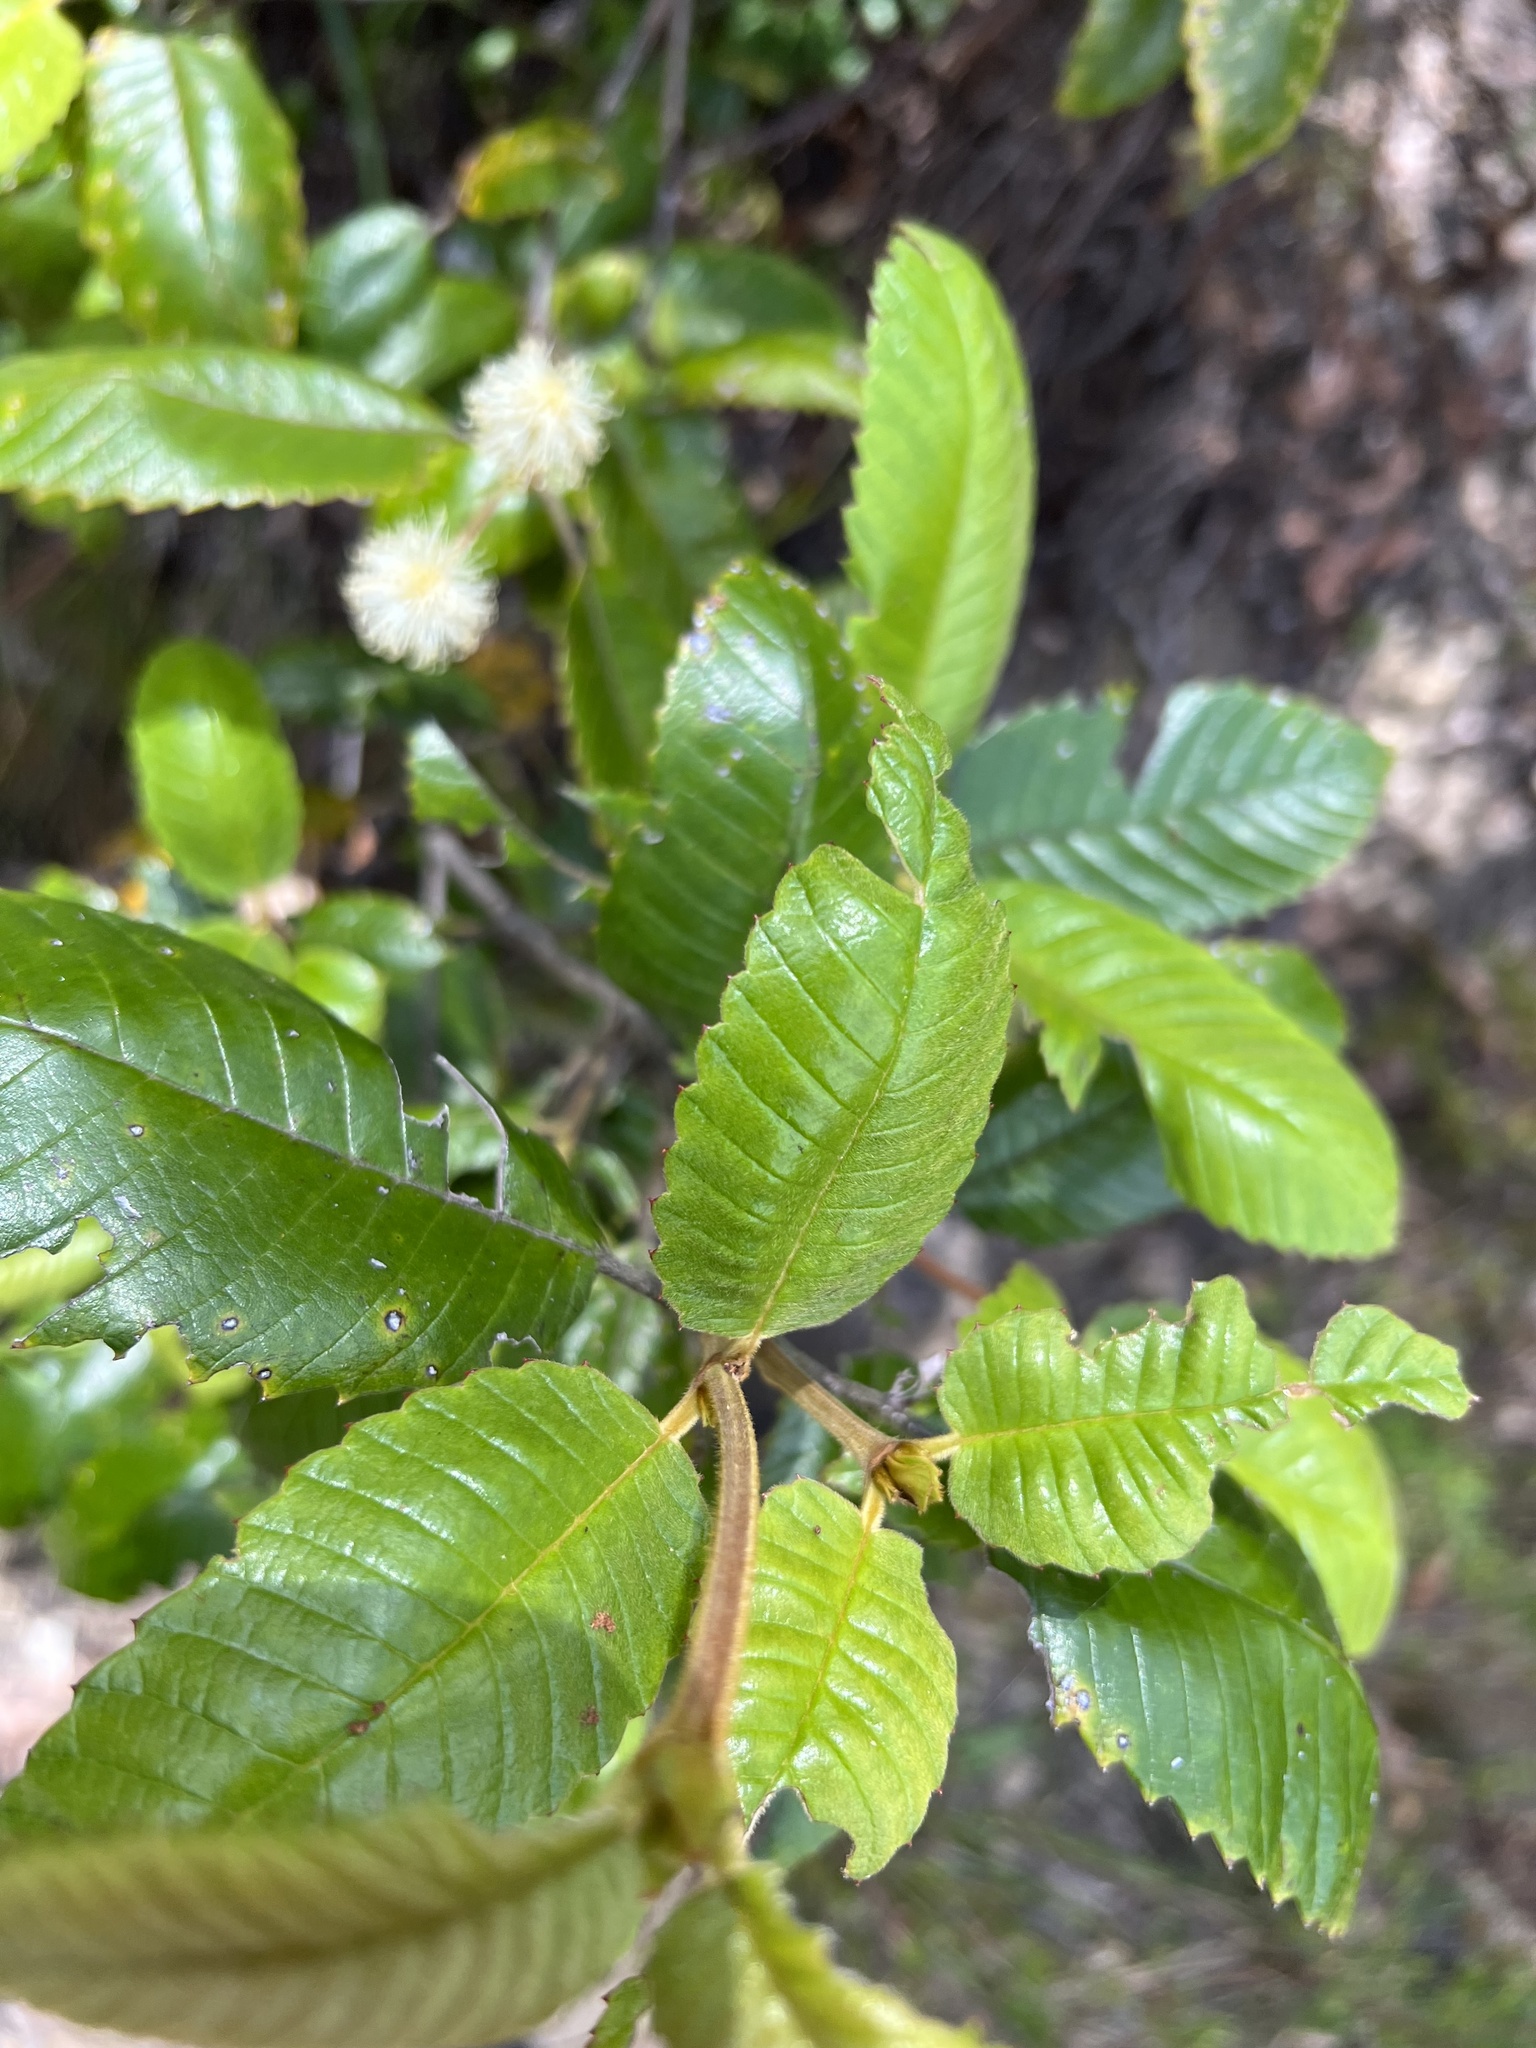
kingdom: Plantae
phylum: Tracheophyta
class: Magnoliopsida
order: Oxalidales
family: Cunoniaceae
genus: Callicoma
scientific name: Callicoma serratifolia
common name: Black wattle
